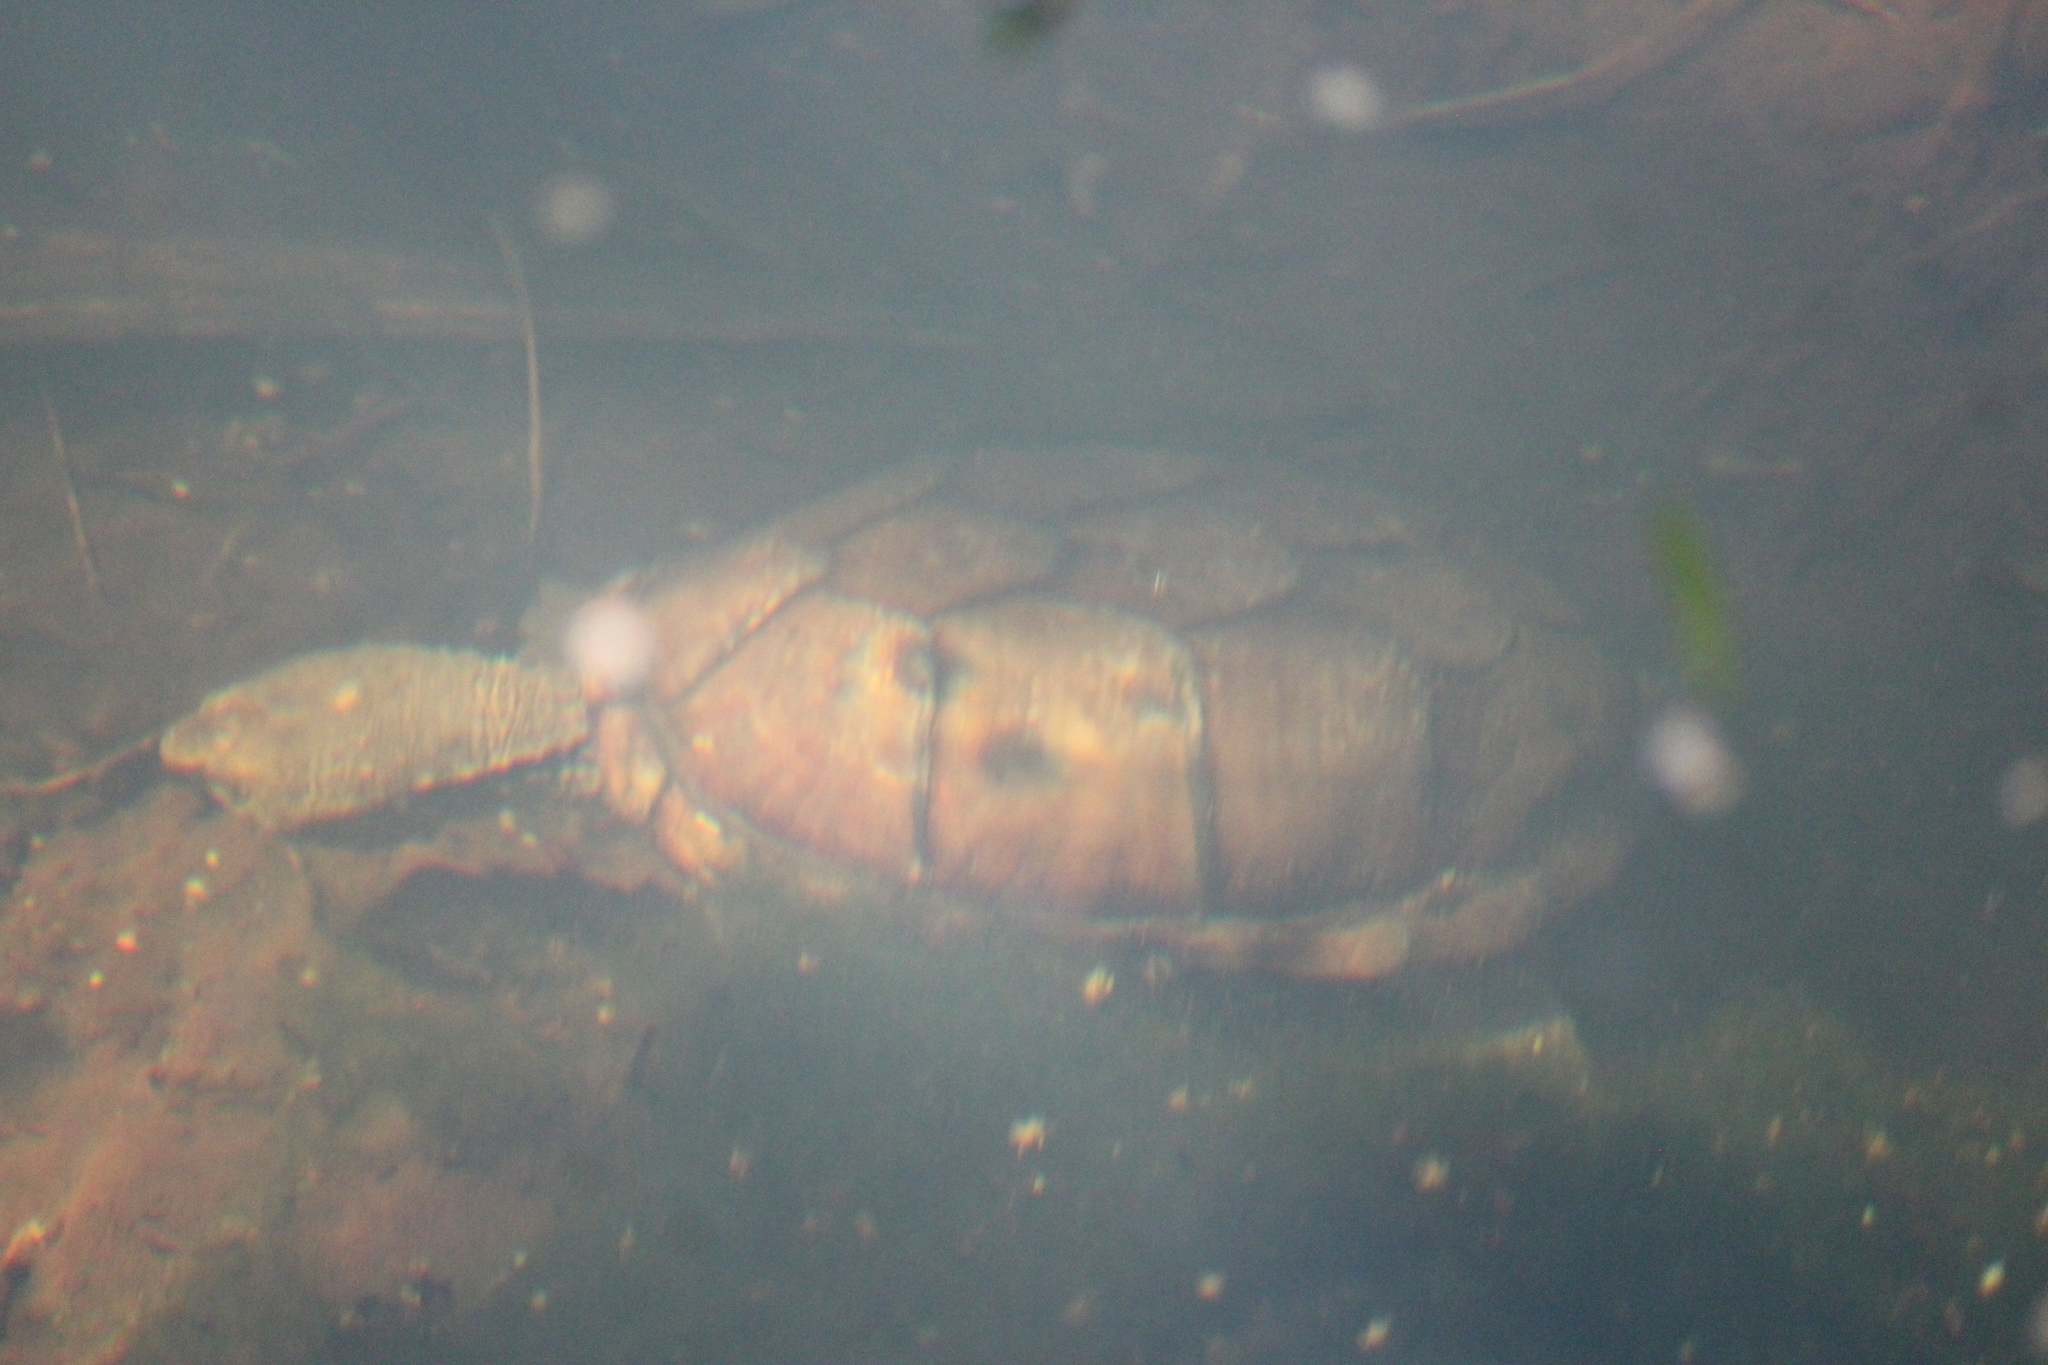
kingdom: Animalia
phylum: Chordata
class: Testudines
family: Kinosternidae
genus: Kinosternon
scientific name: Kinosternon integrum
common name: Mexican mud turtle
